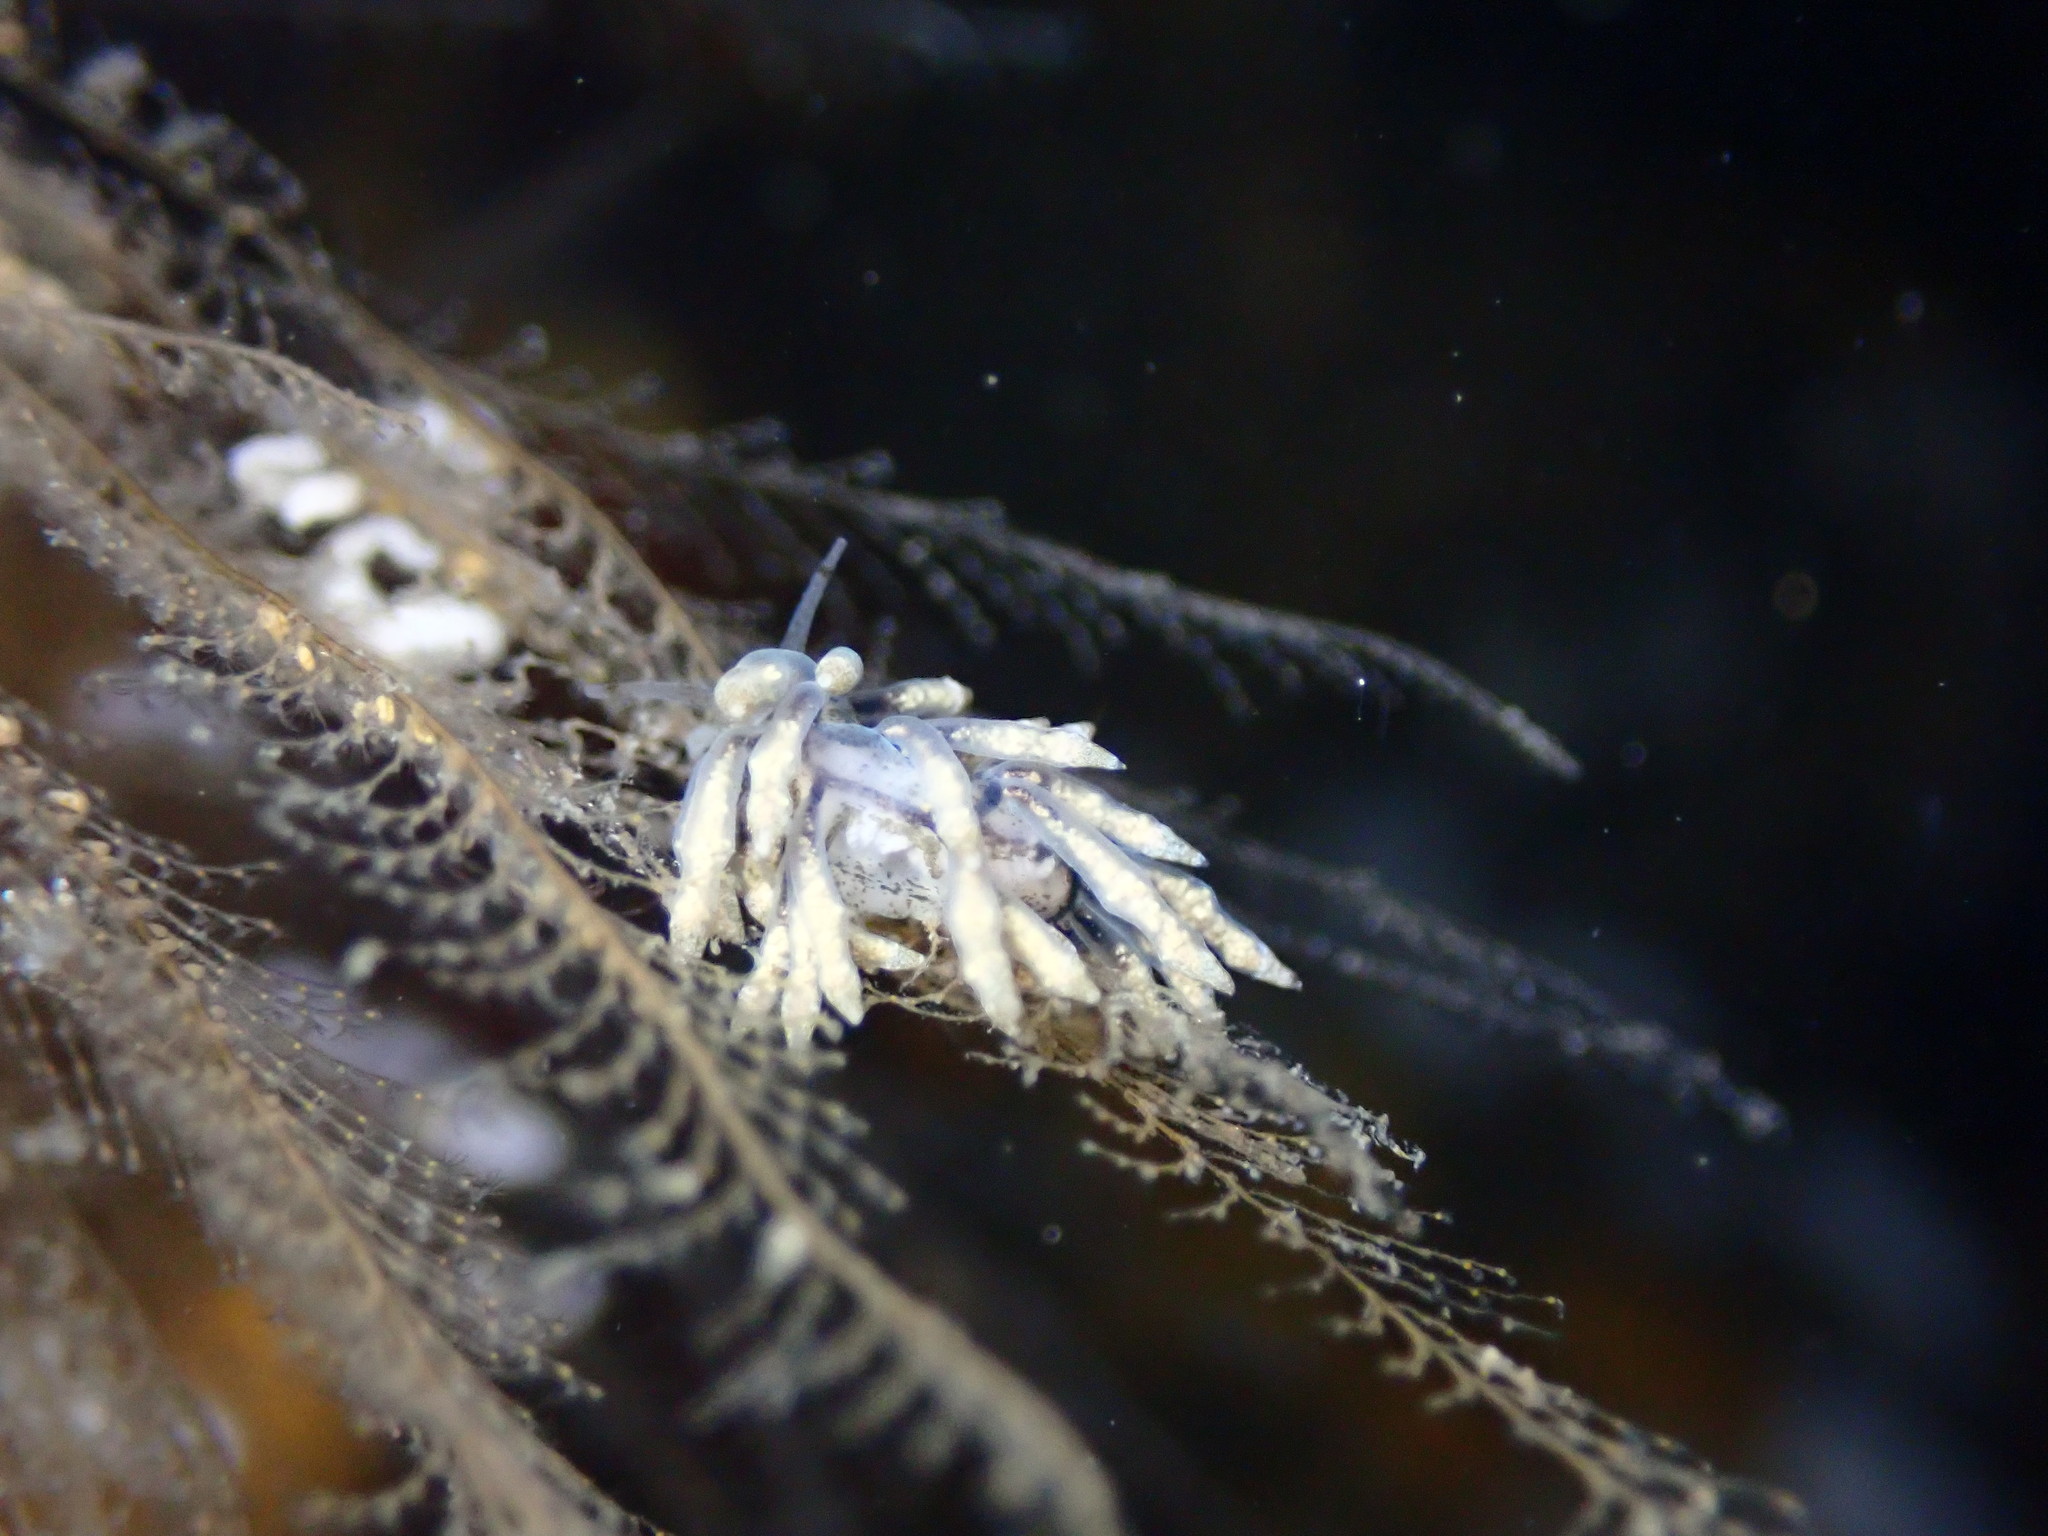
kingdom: Animalia
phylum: Mollusca
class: Gastropoda
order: Nudibranchia
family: Eubranchidae
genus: Eubranchus
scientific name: Eubranchus rustyus
